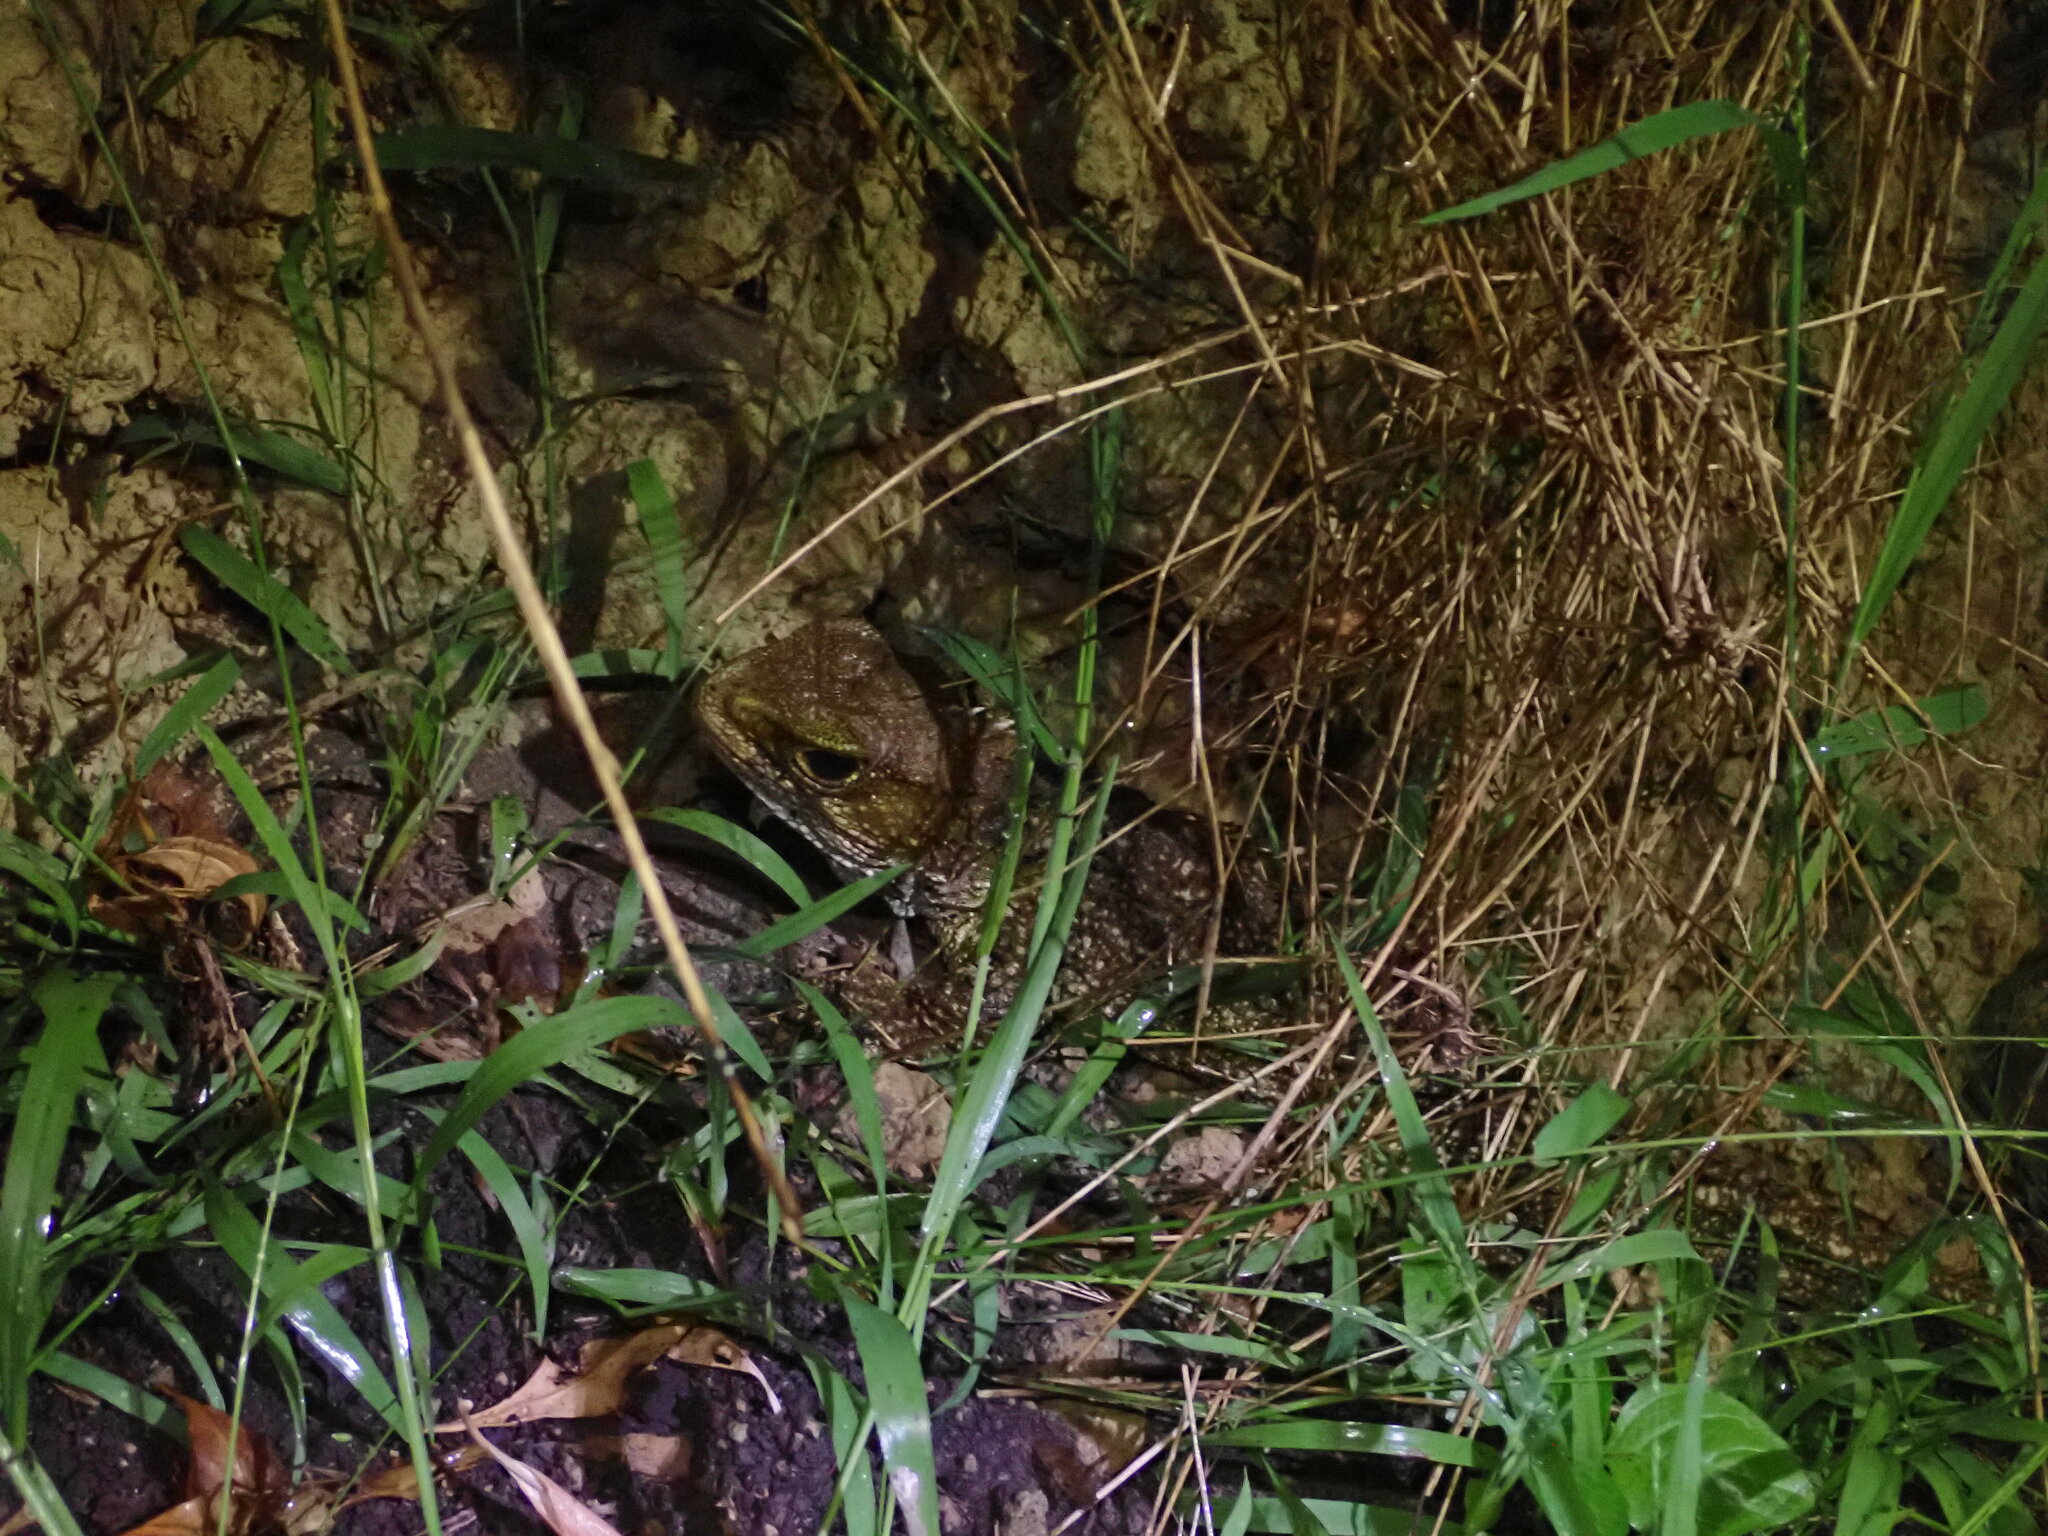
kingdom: Animalia
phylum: Chordata
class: Sphenodontia
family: Sphenodontidae
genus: Sphenodon
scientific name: Sphenodon punctatus
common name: Tuatara
